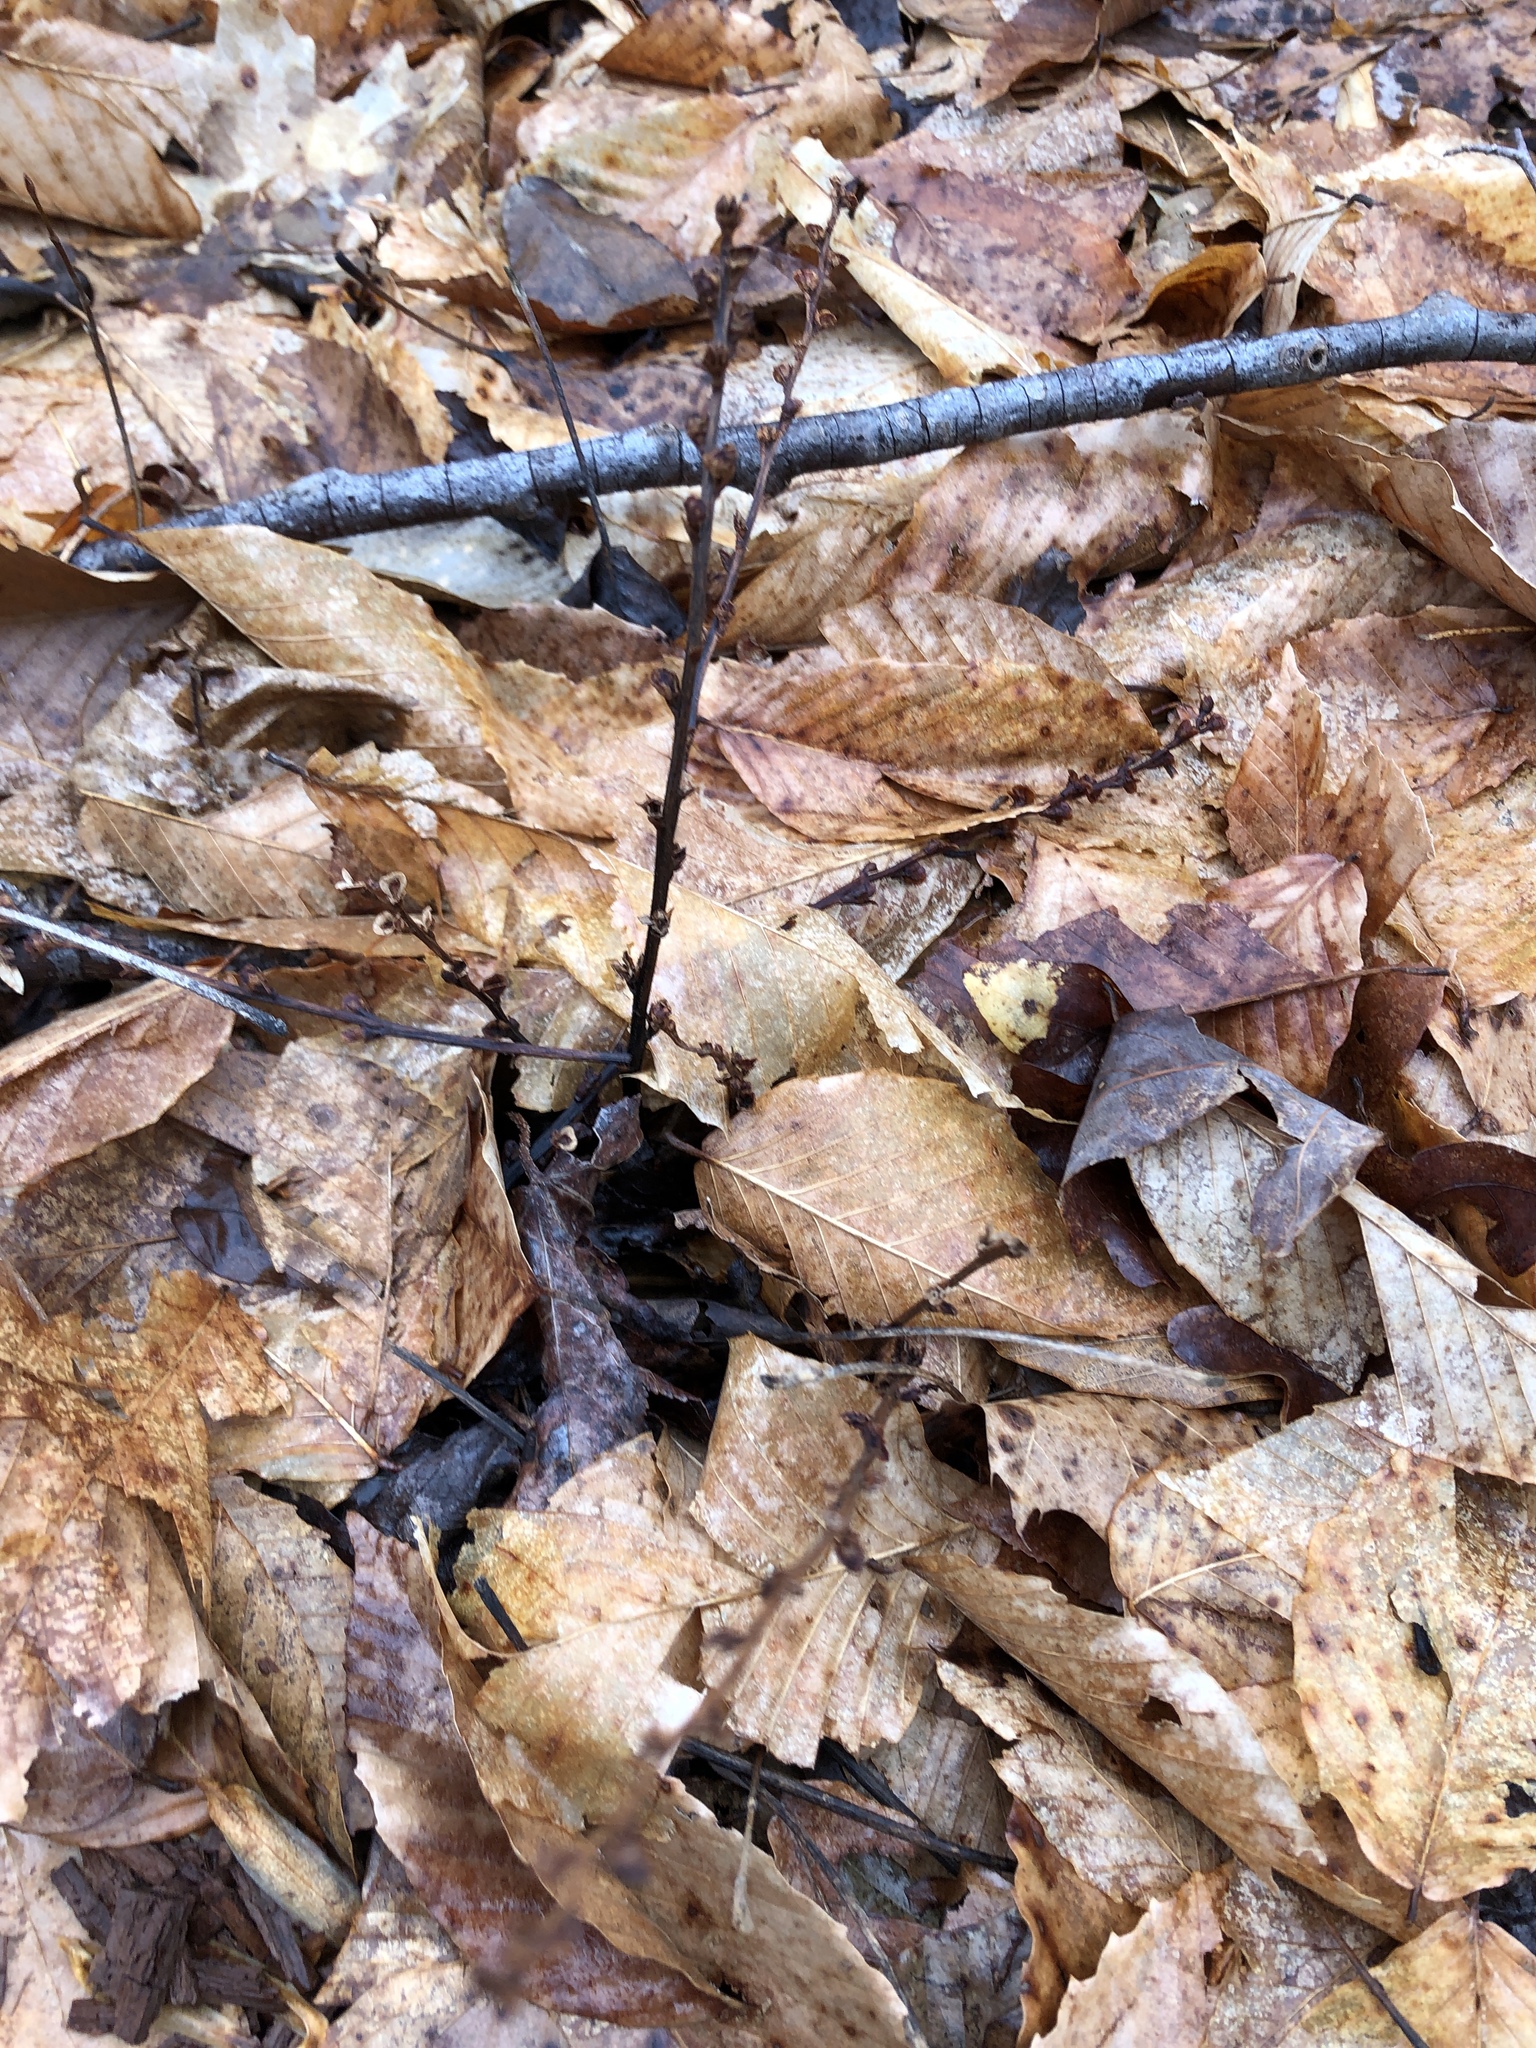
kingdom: Plantae
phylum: Tracheophyta
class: Magnoliopsida
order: Lamiales
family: Orobanchaceae
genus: Epifagus
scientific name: Epifagus virginiana
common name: Beechdrops
